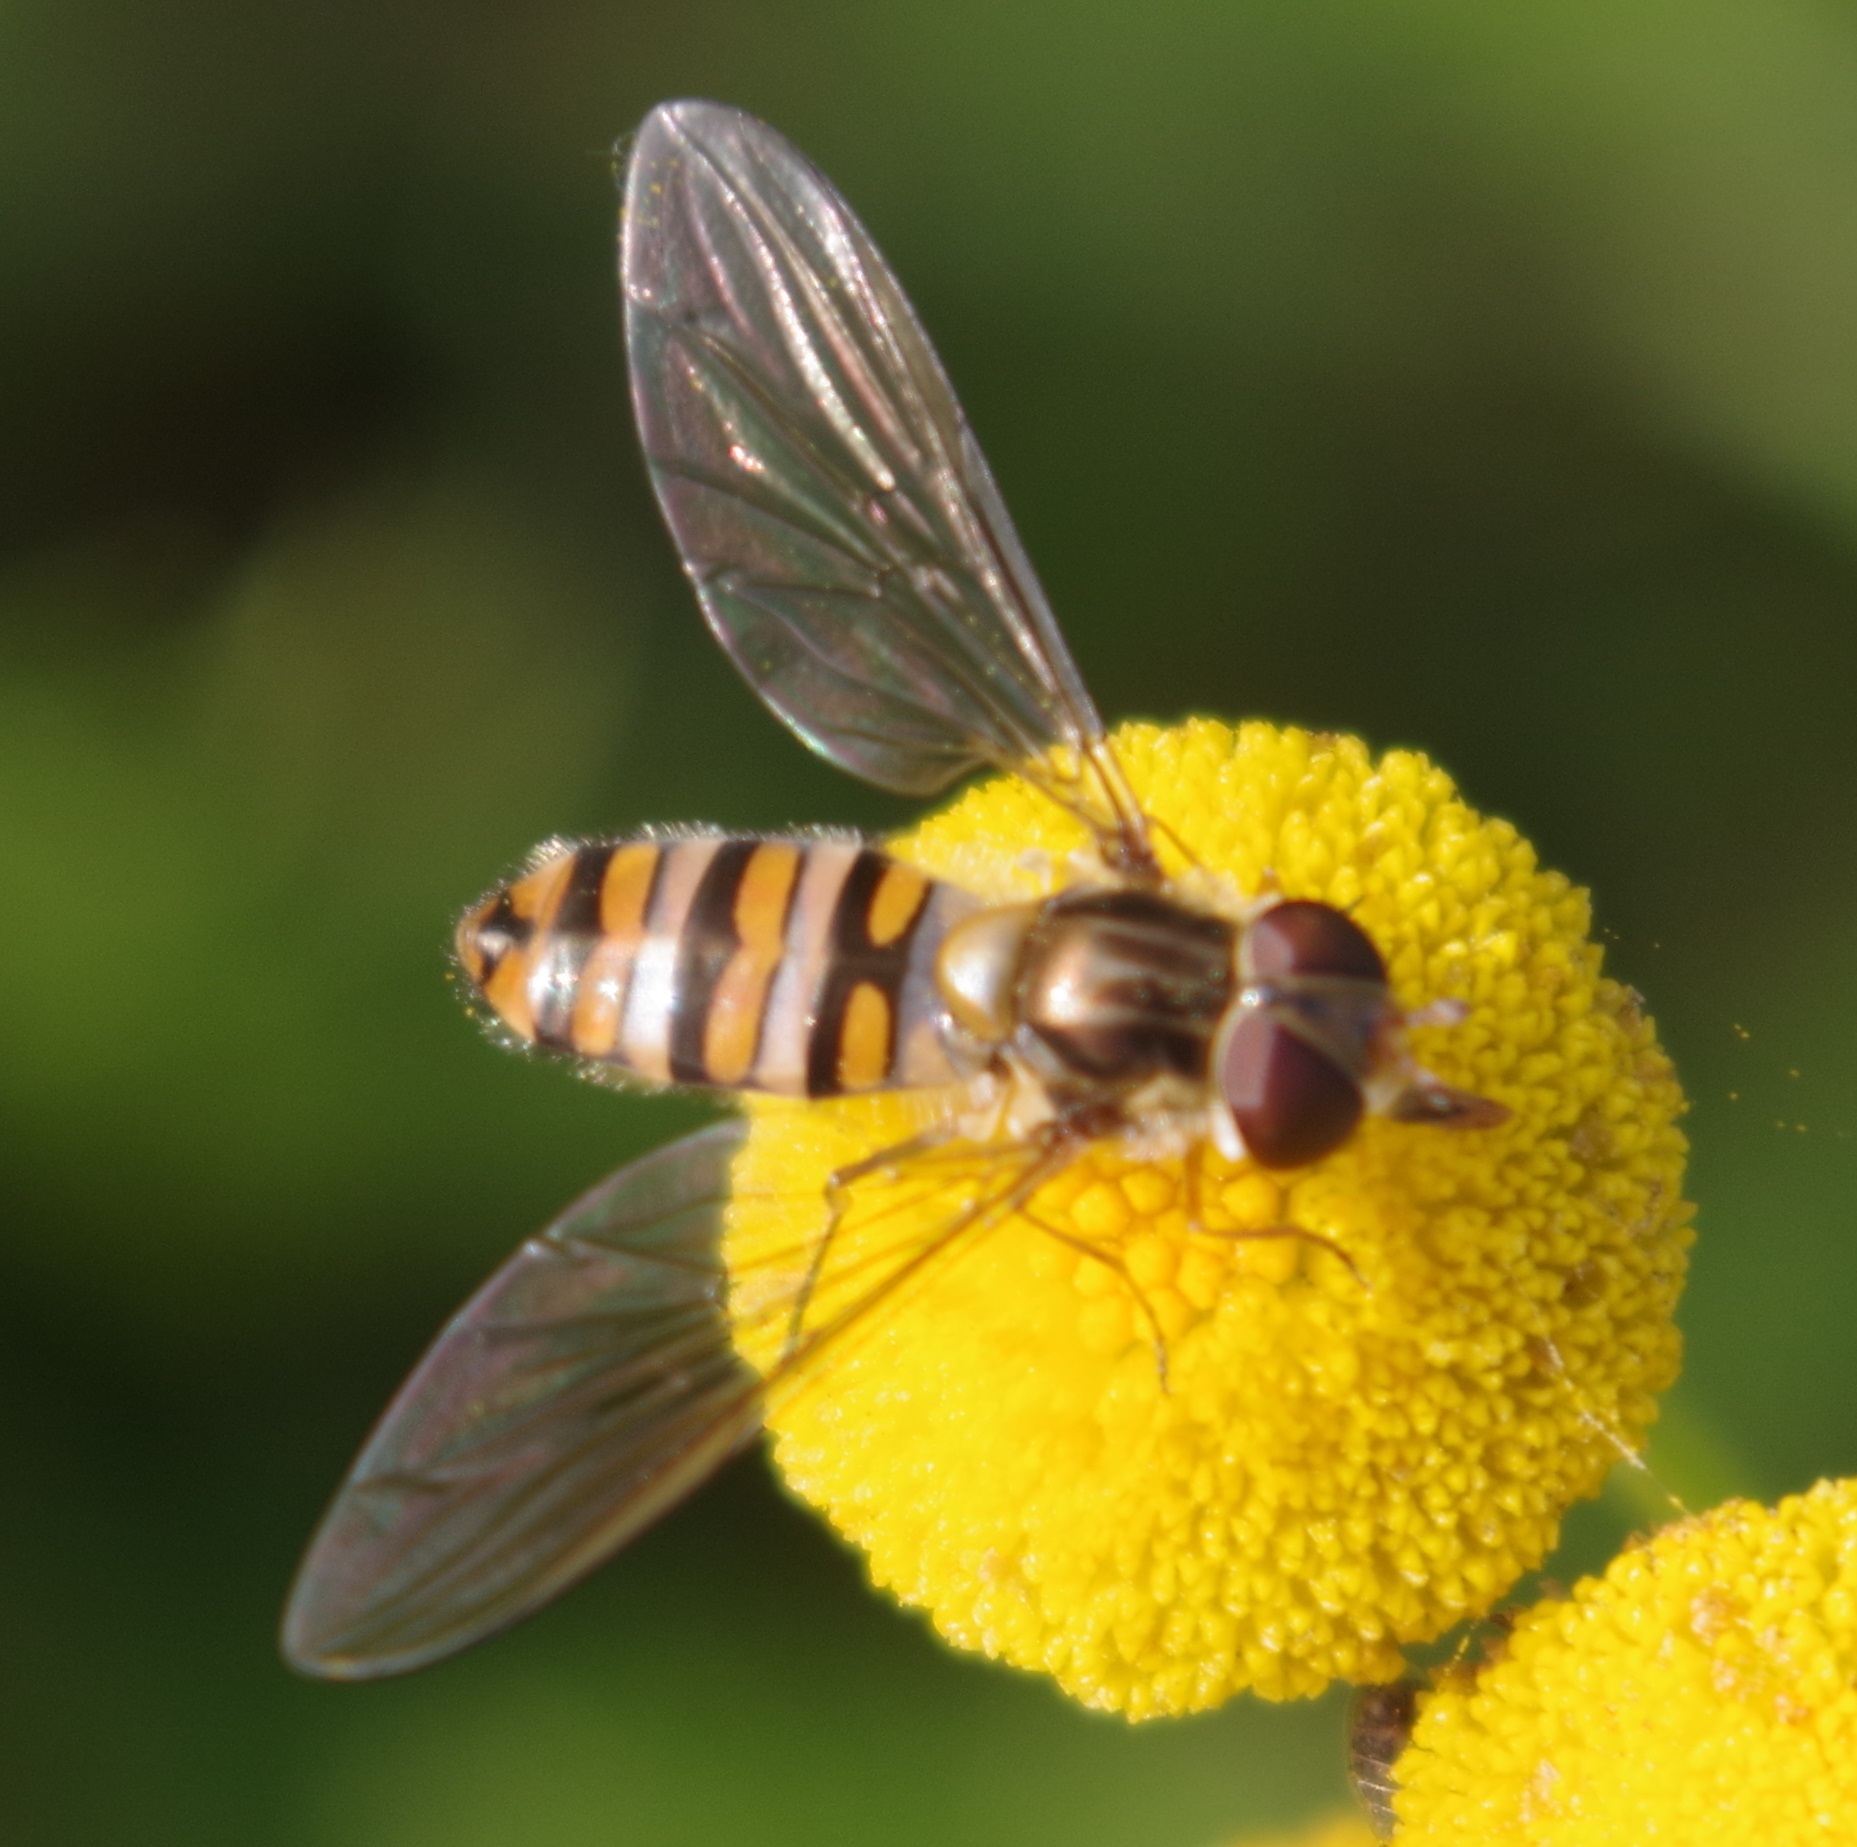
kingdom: Animalia
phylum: Arthropoda
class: Insecta
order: Diptera
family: Syrphidae
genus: Episyrphus
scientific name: Episyrphus balteatus
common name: Marmalade hoverfly
